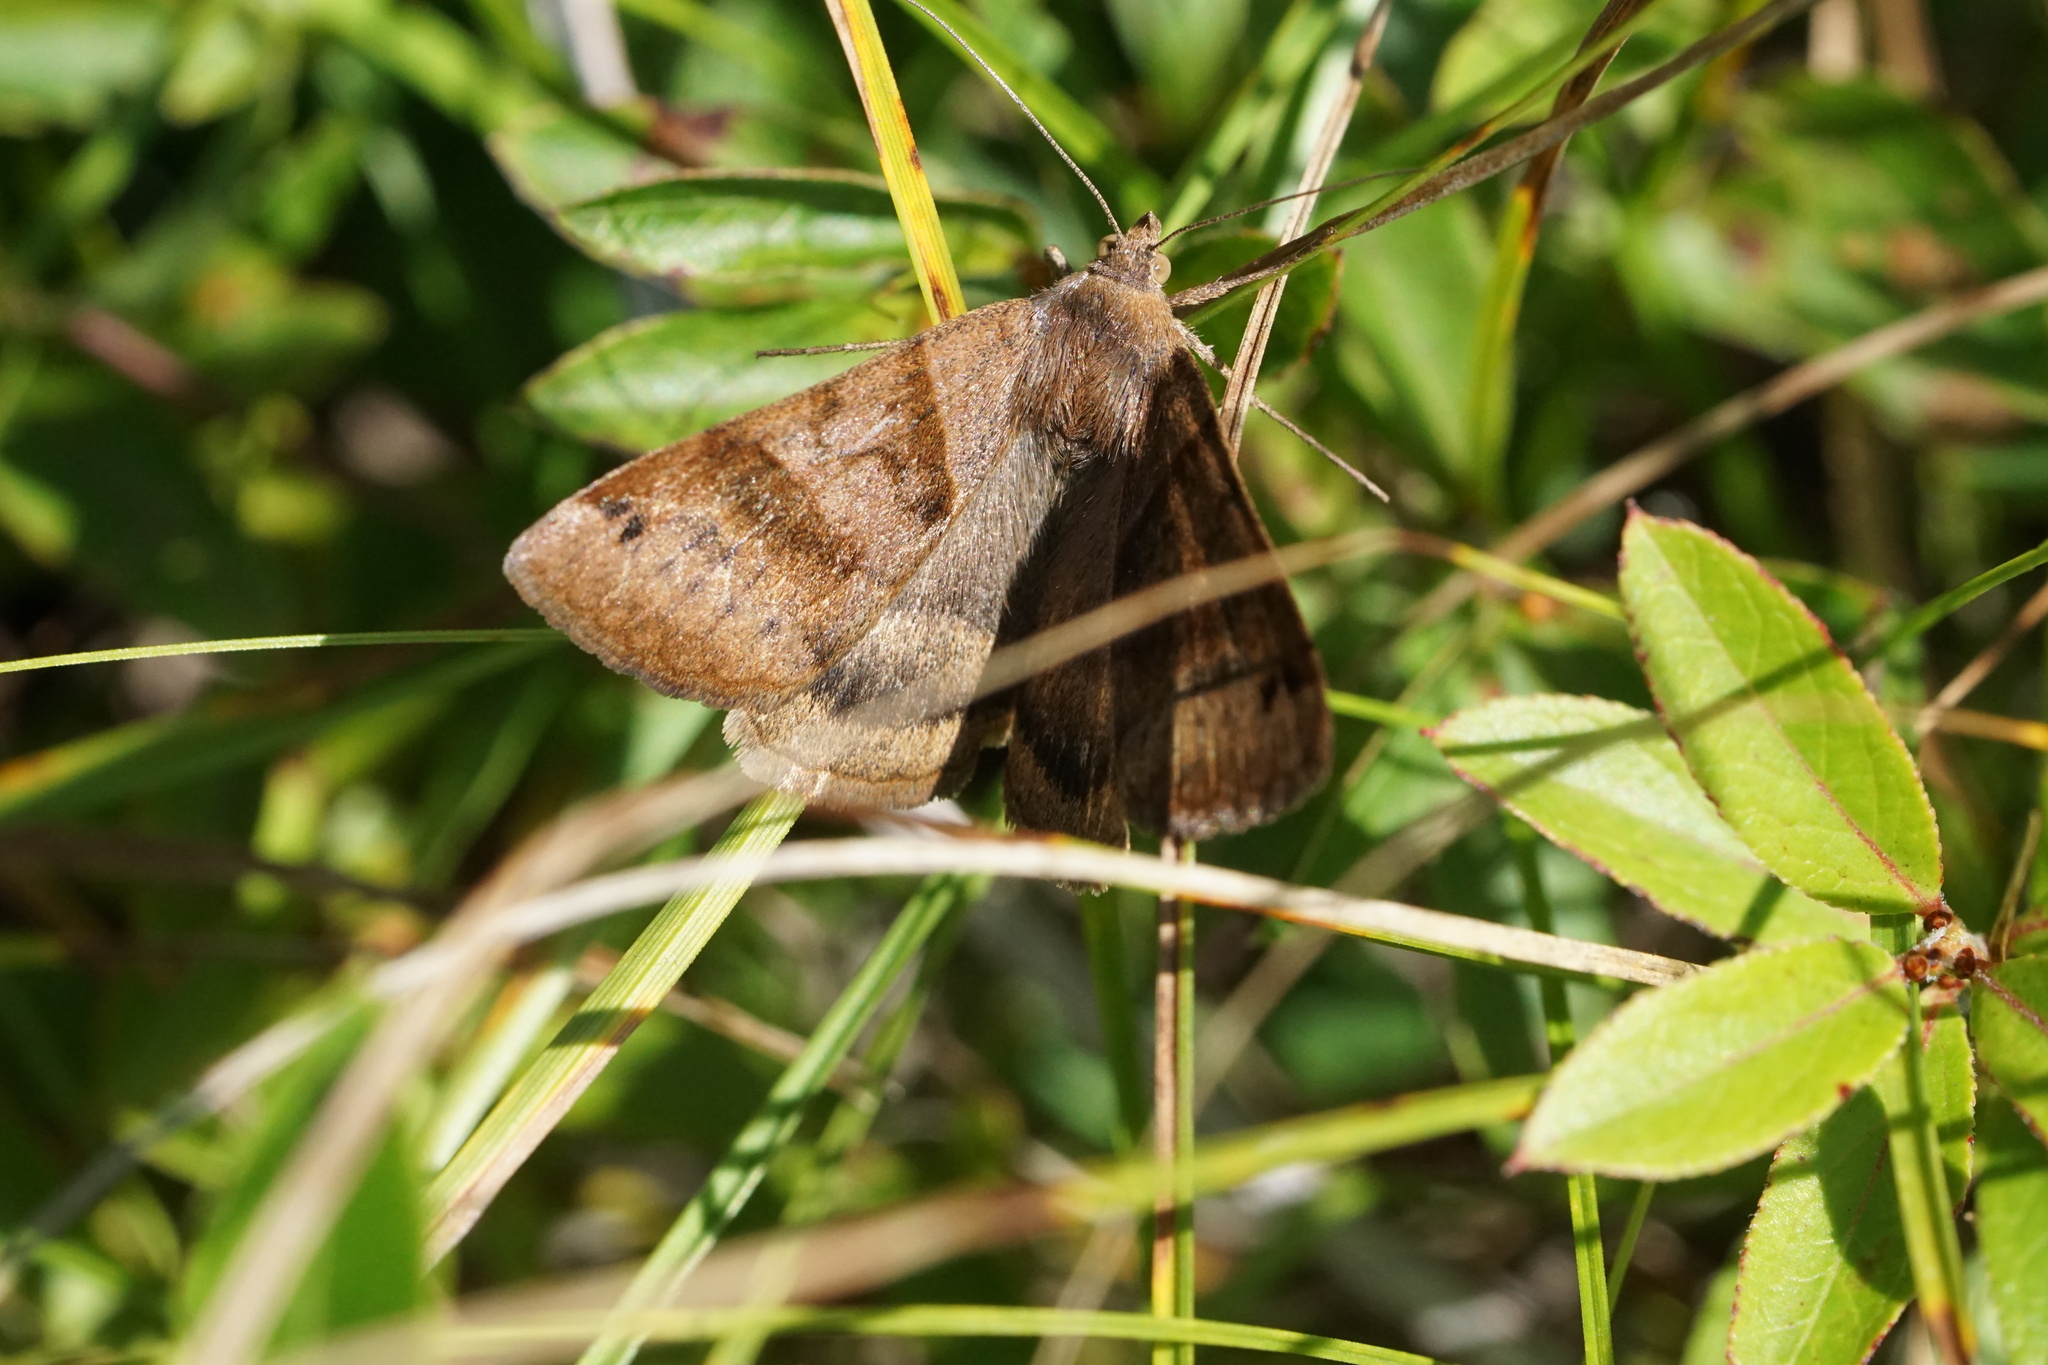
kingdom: Animalia
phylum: Arthropoda
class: Insecta
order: Lepidoptera
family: Erebidae
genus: Caenurgina
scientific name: Caenurgina crassiuscula
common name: Double-barred
